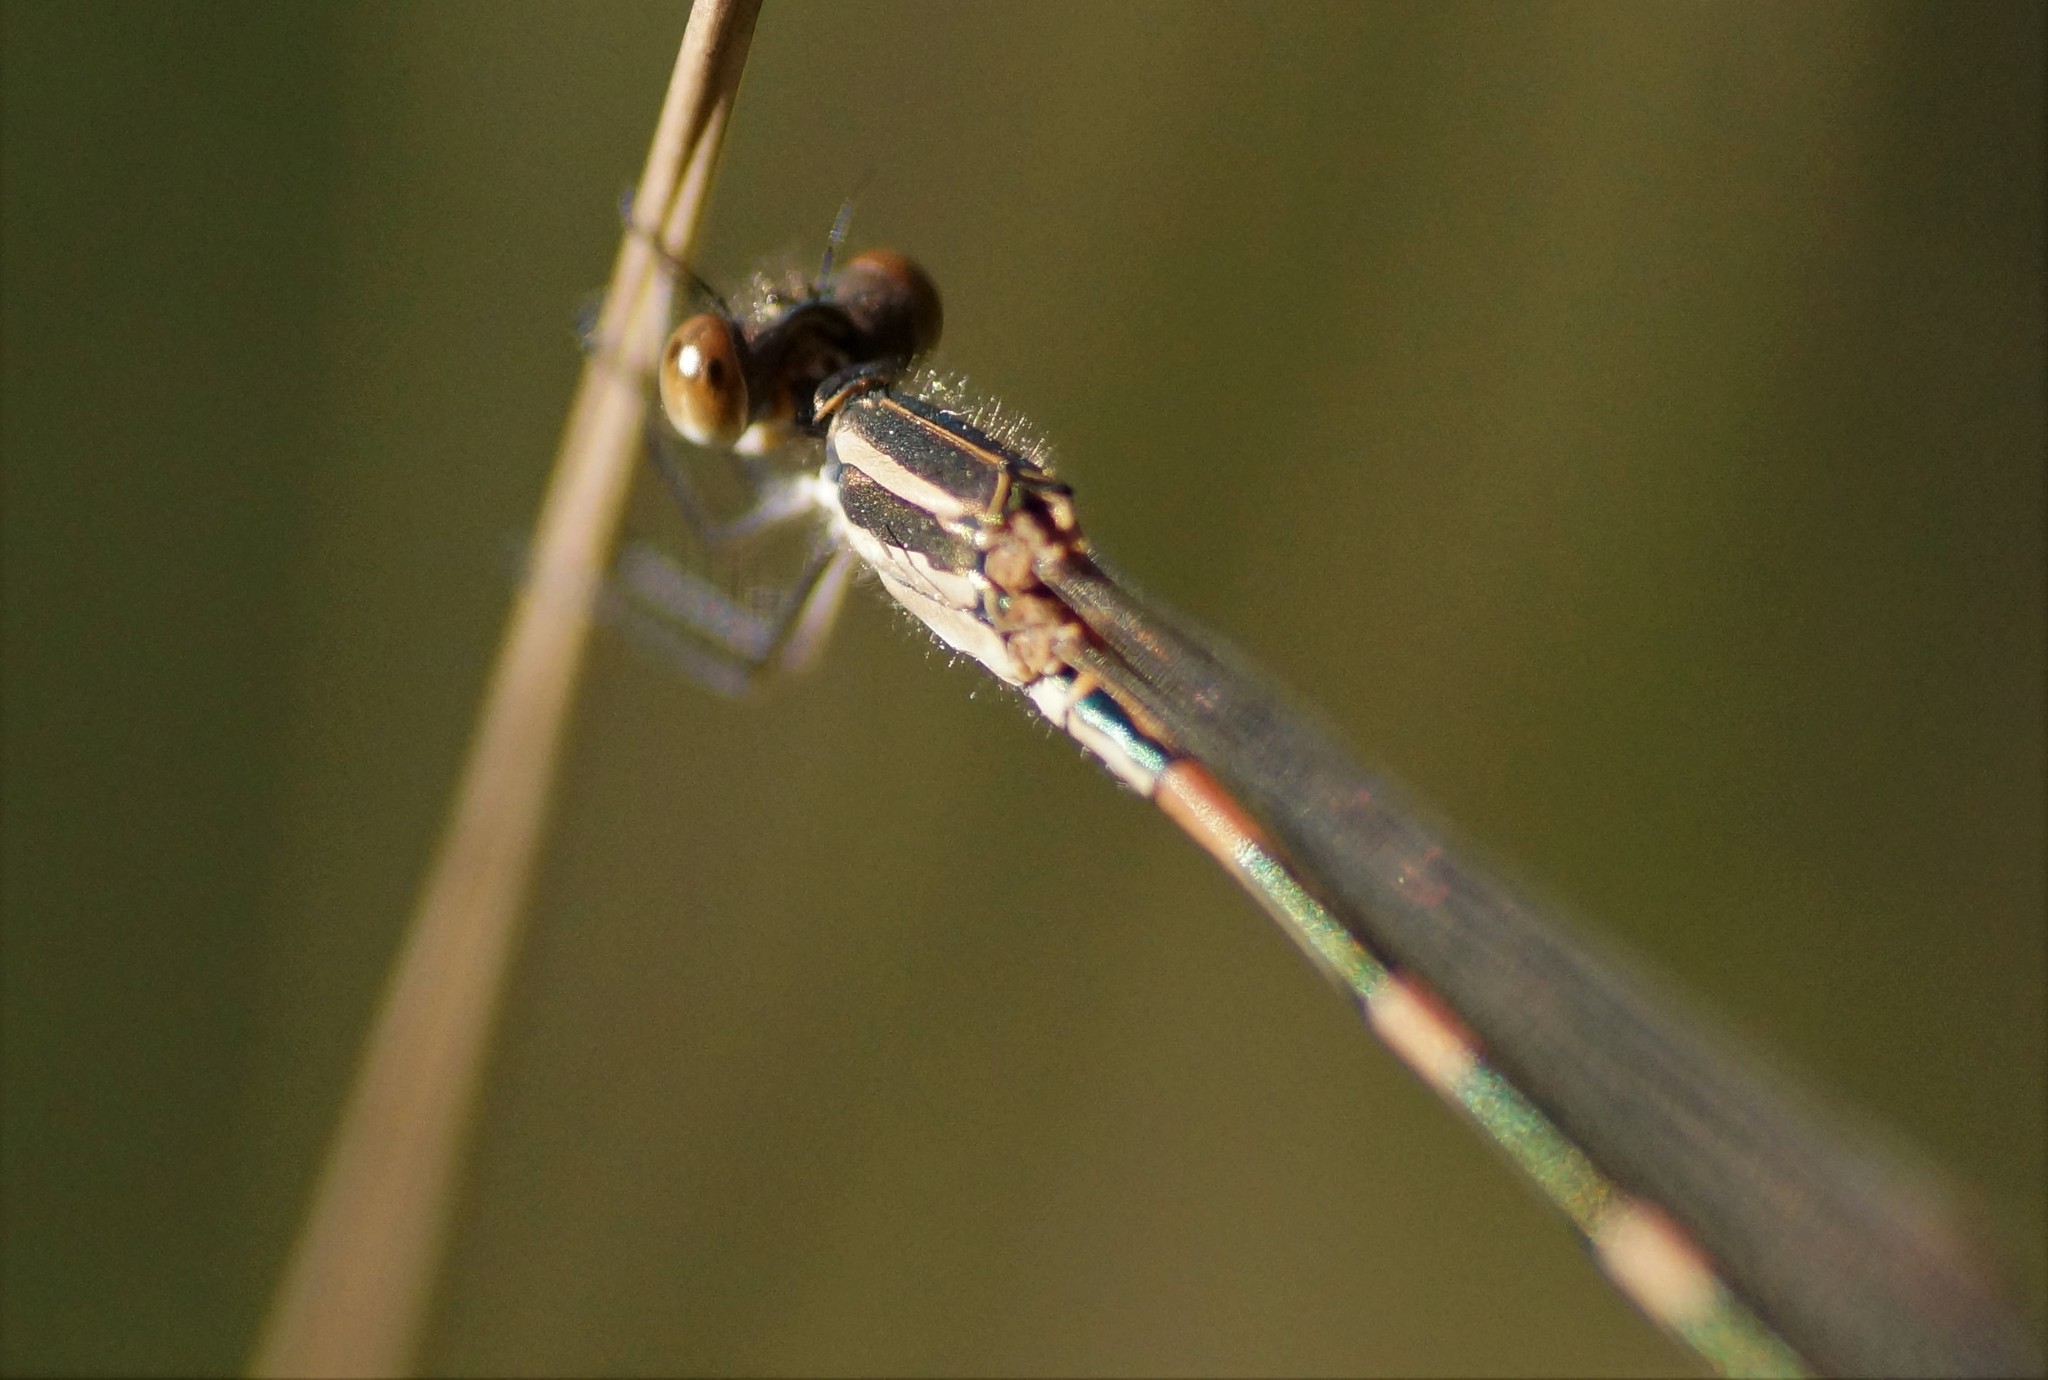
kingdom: Animalia
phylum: Arthropoda
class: Insecta
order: Odonata
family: Lestidae
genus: Austrolestes
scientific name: Austrolestes leda
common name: Wandering ringtail
